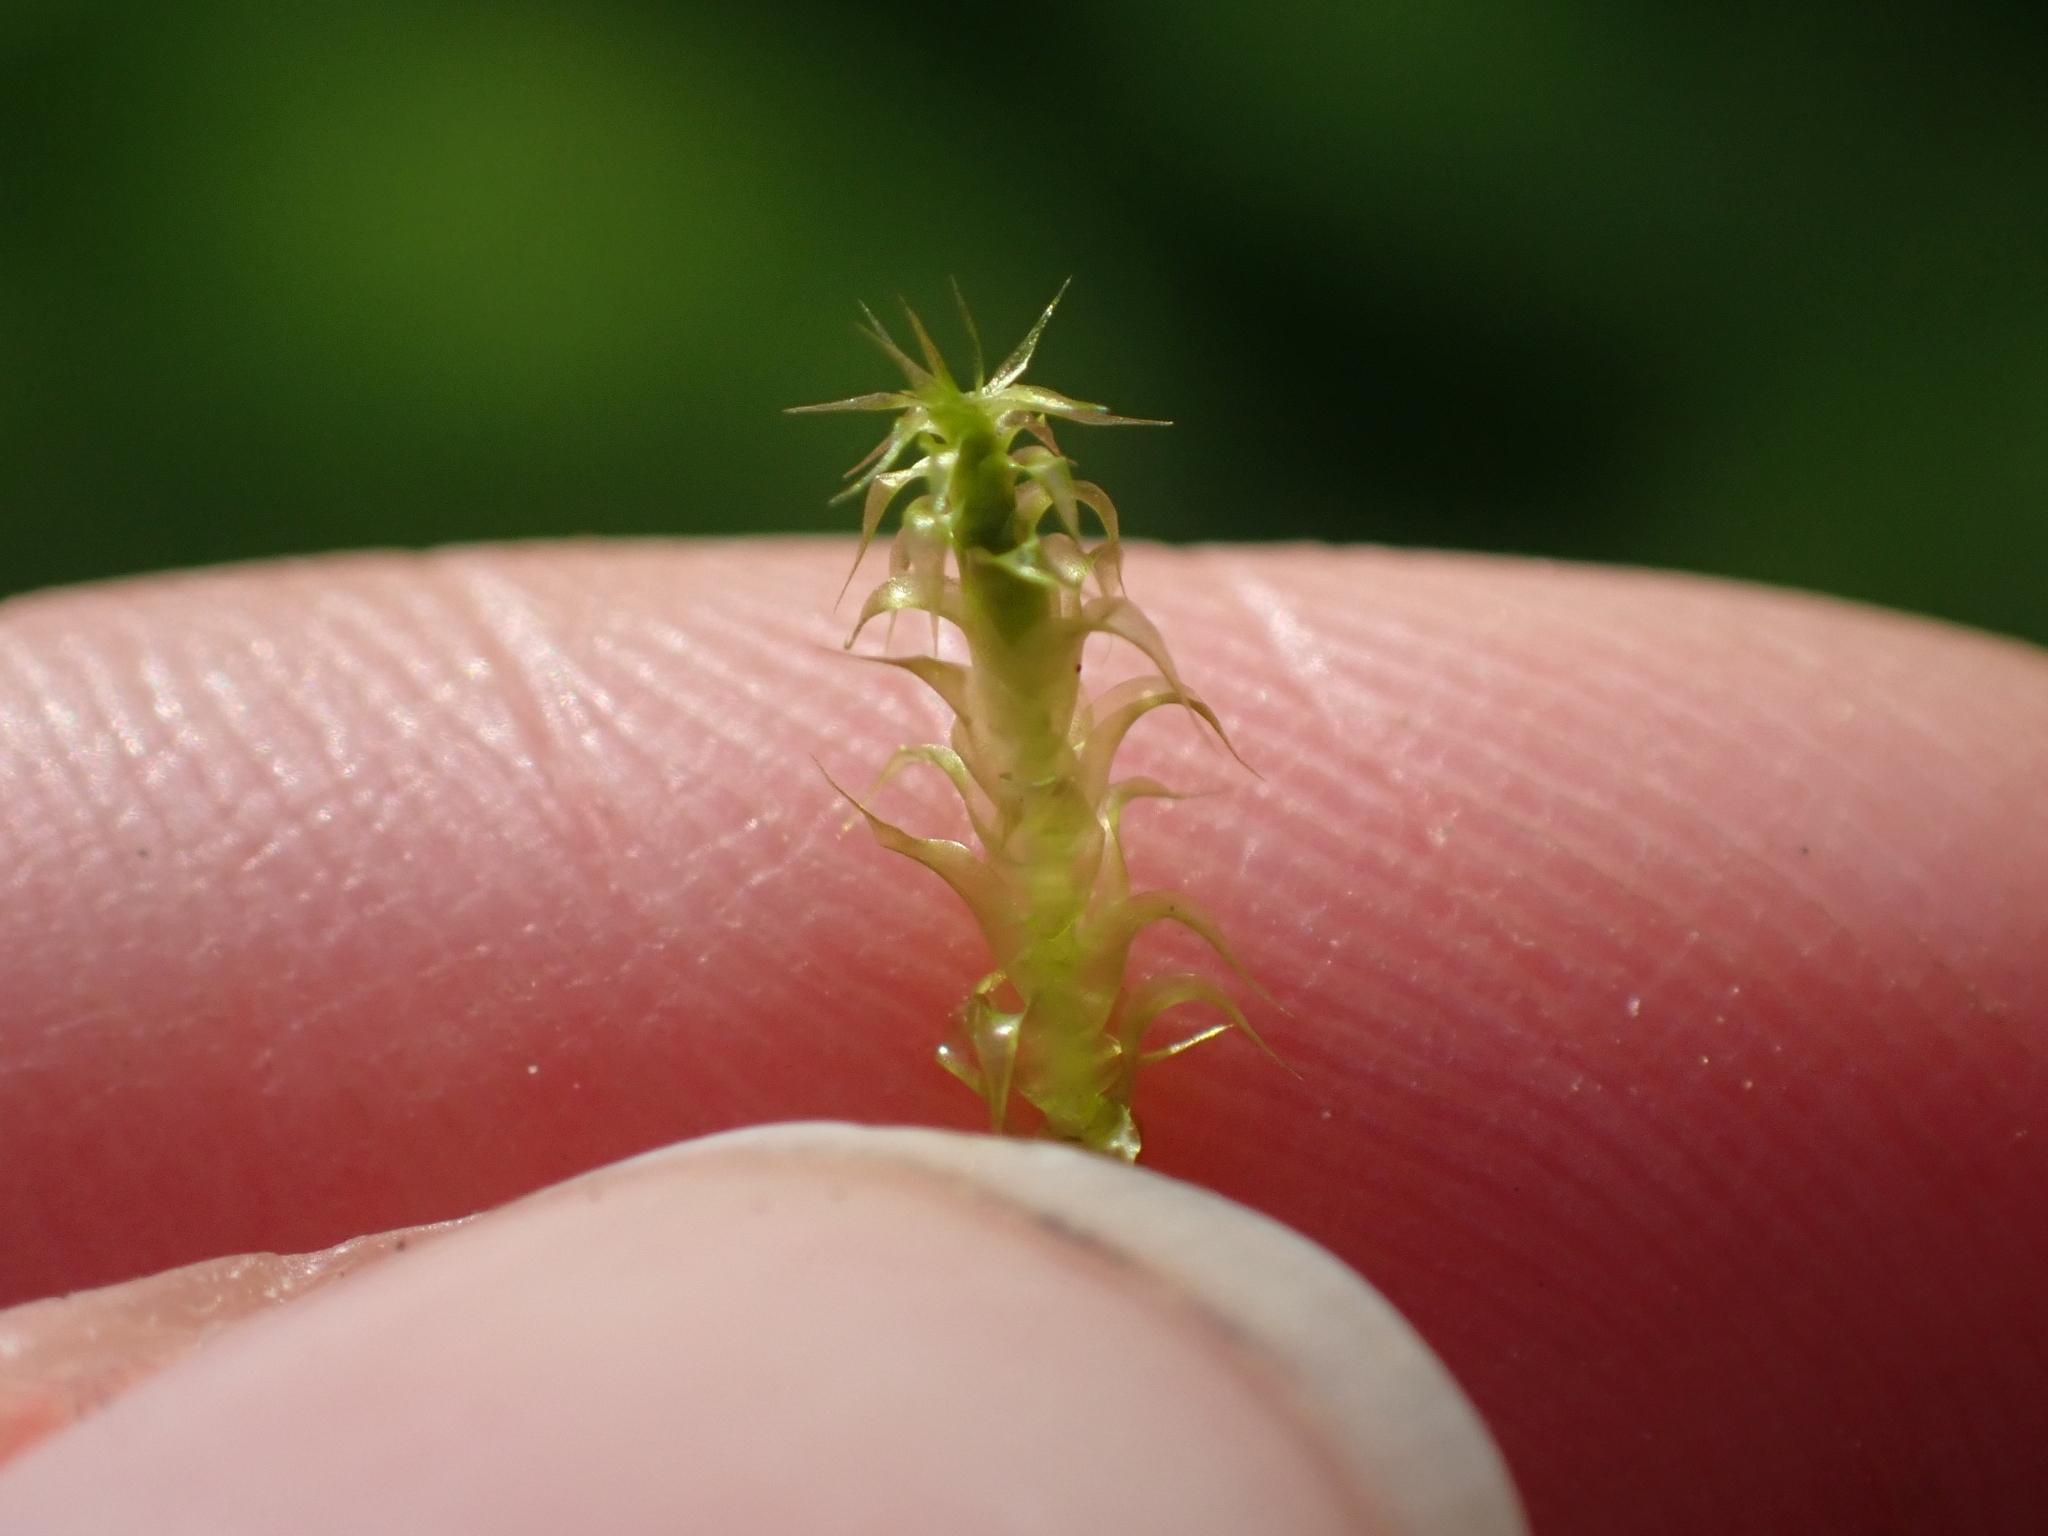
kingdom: Plantae
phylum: Bryophyta
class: Bryopsida
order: Hypnales
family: Hylocomiaceae
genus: Rhytidiadelphus
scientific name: Rhytidiadelphus squarrosus
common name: Springy turf-moss
